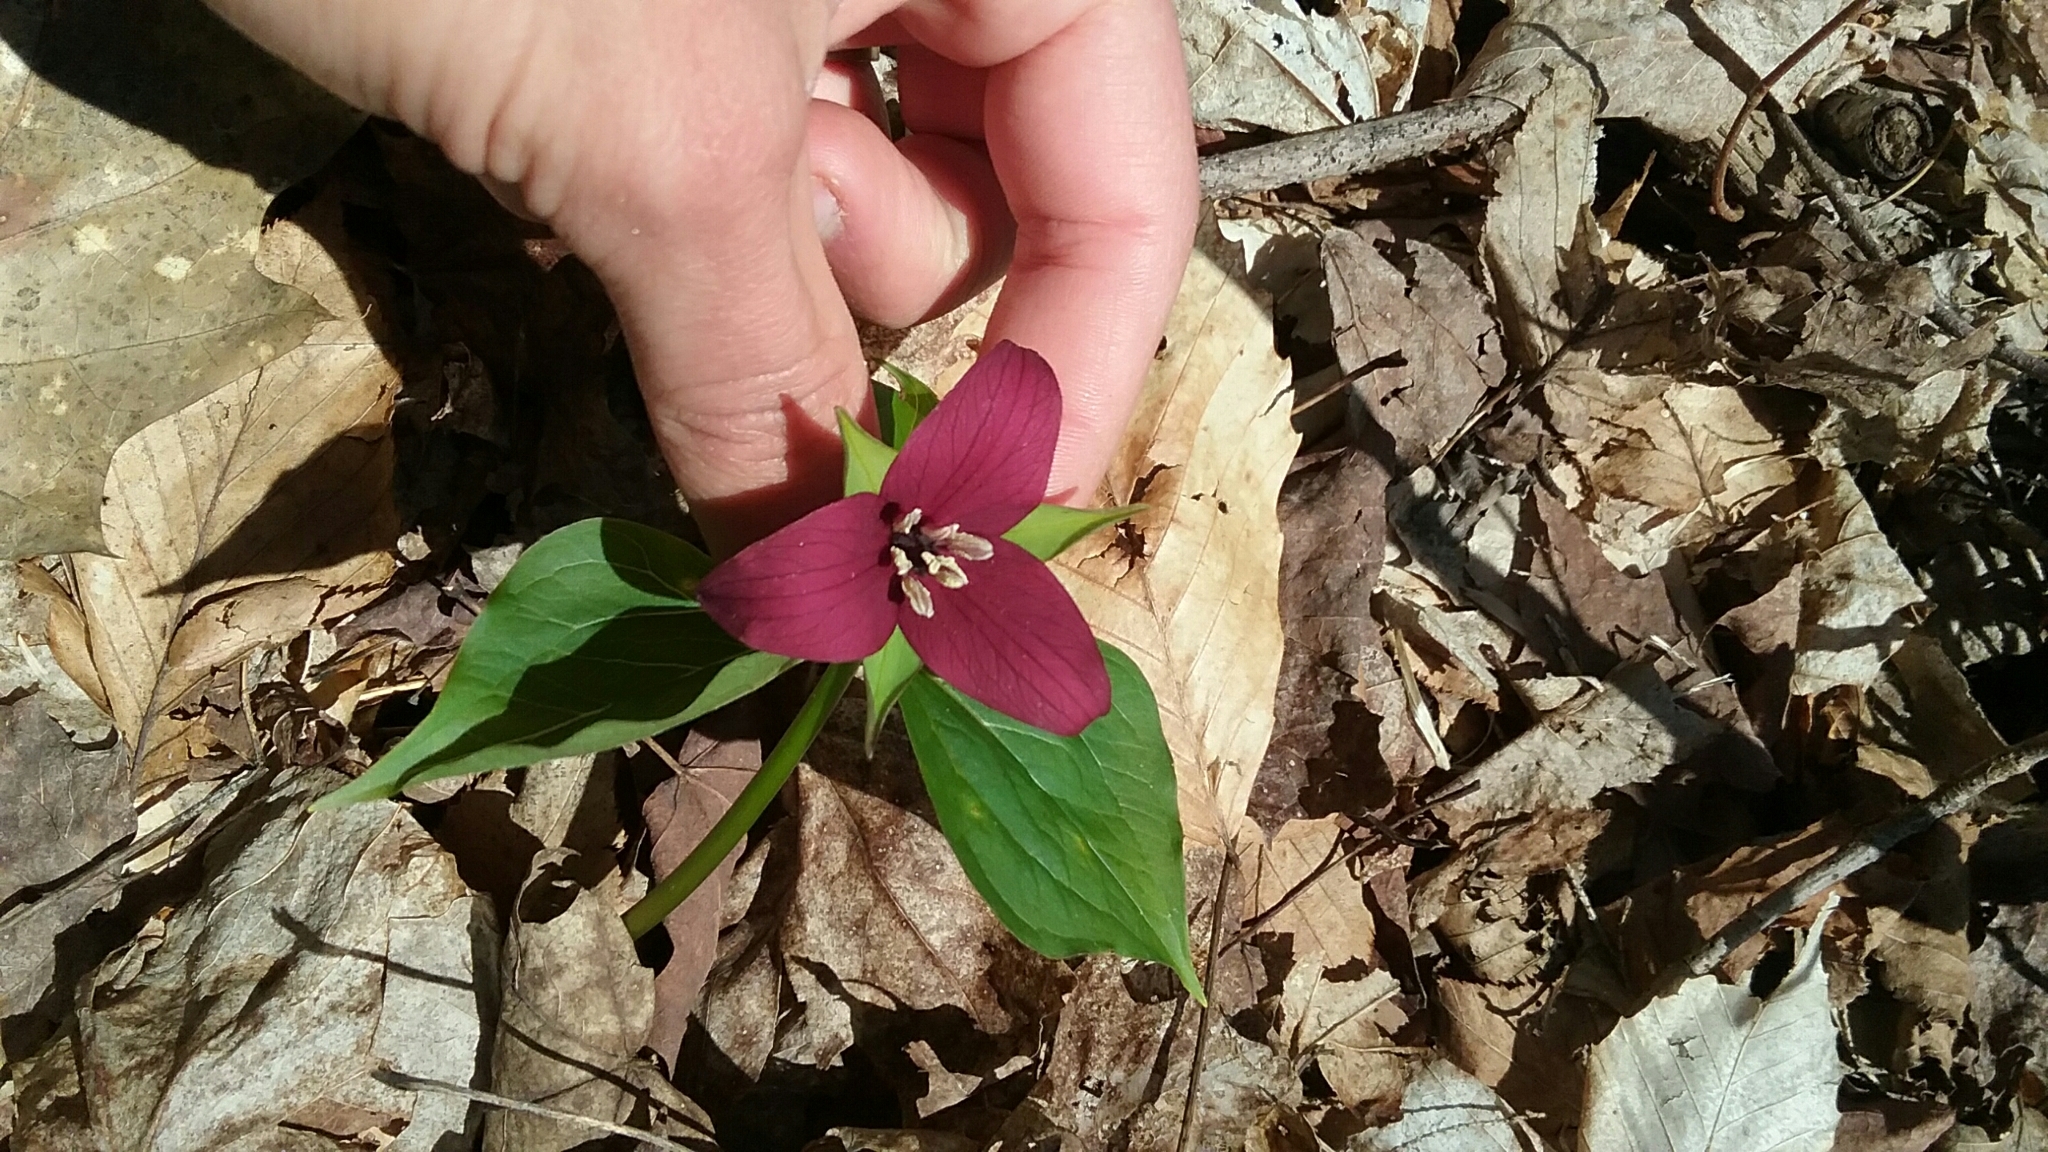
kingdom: Plantae
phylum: Tracheophyta
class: Liliopsida
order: Liliales
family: Melanthiaceae
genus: Trillium
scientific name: Trillium erectum
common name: Purple trillium
